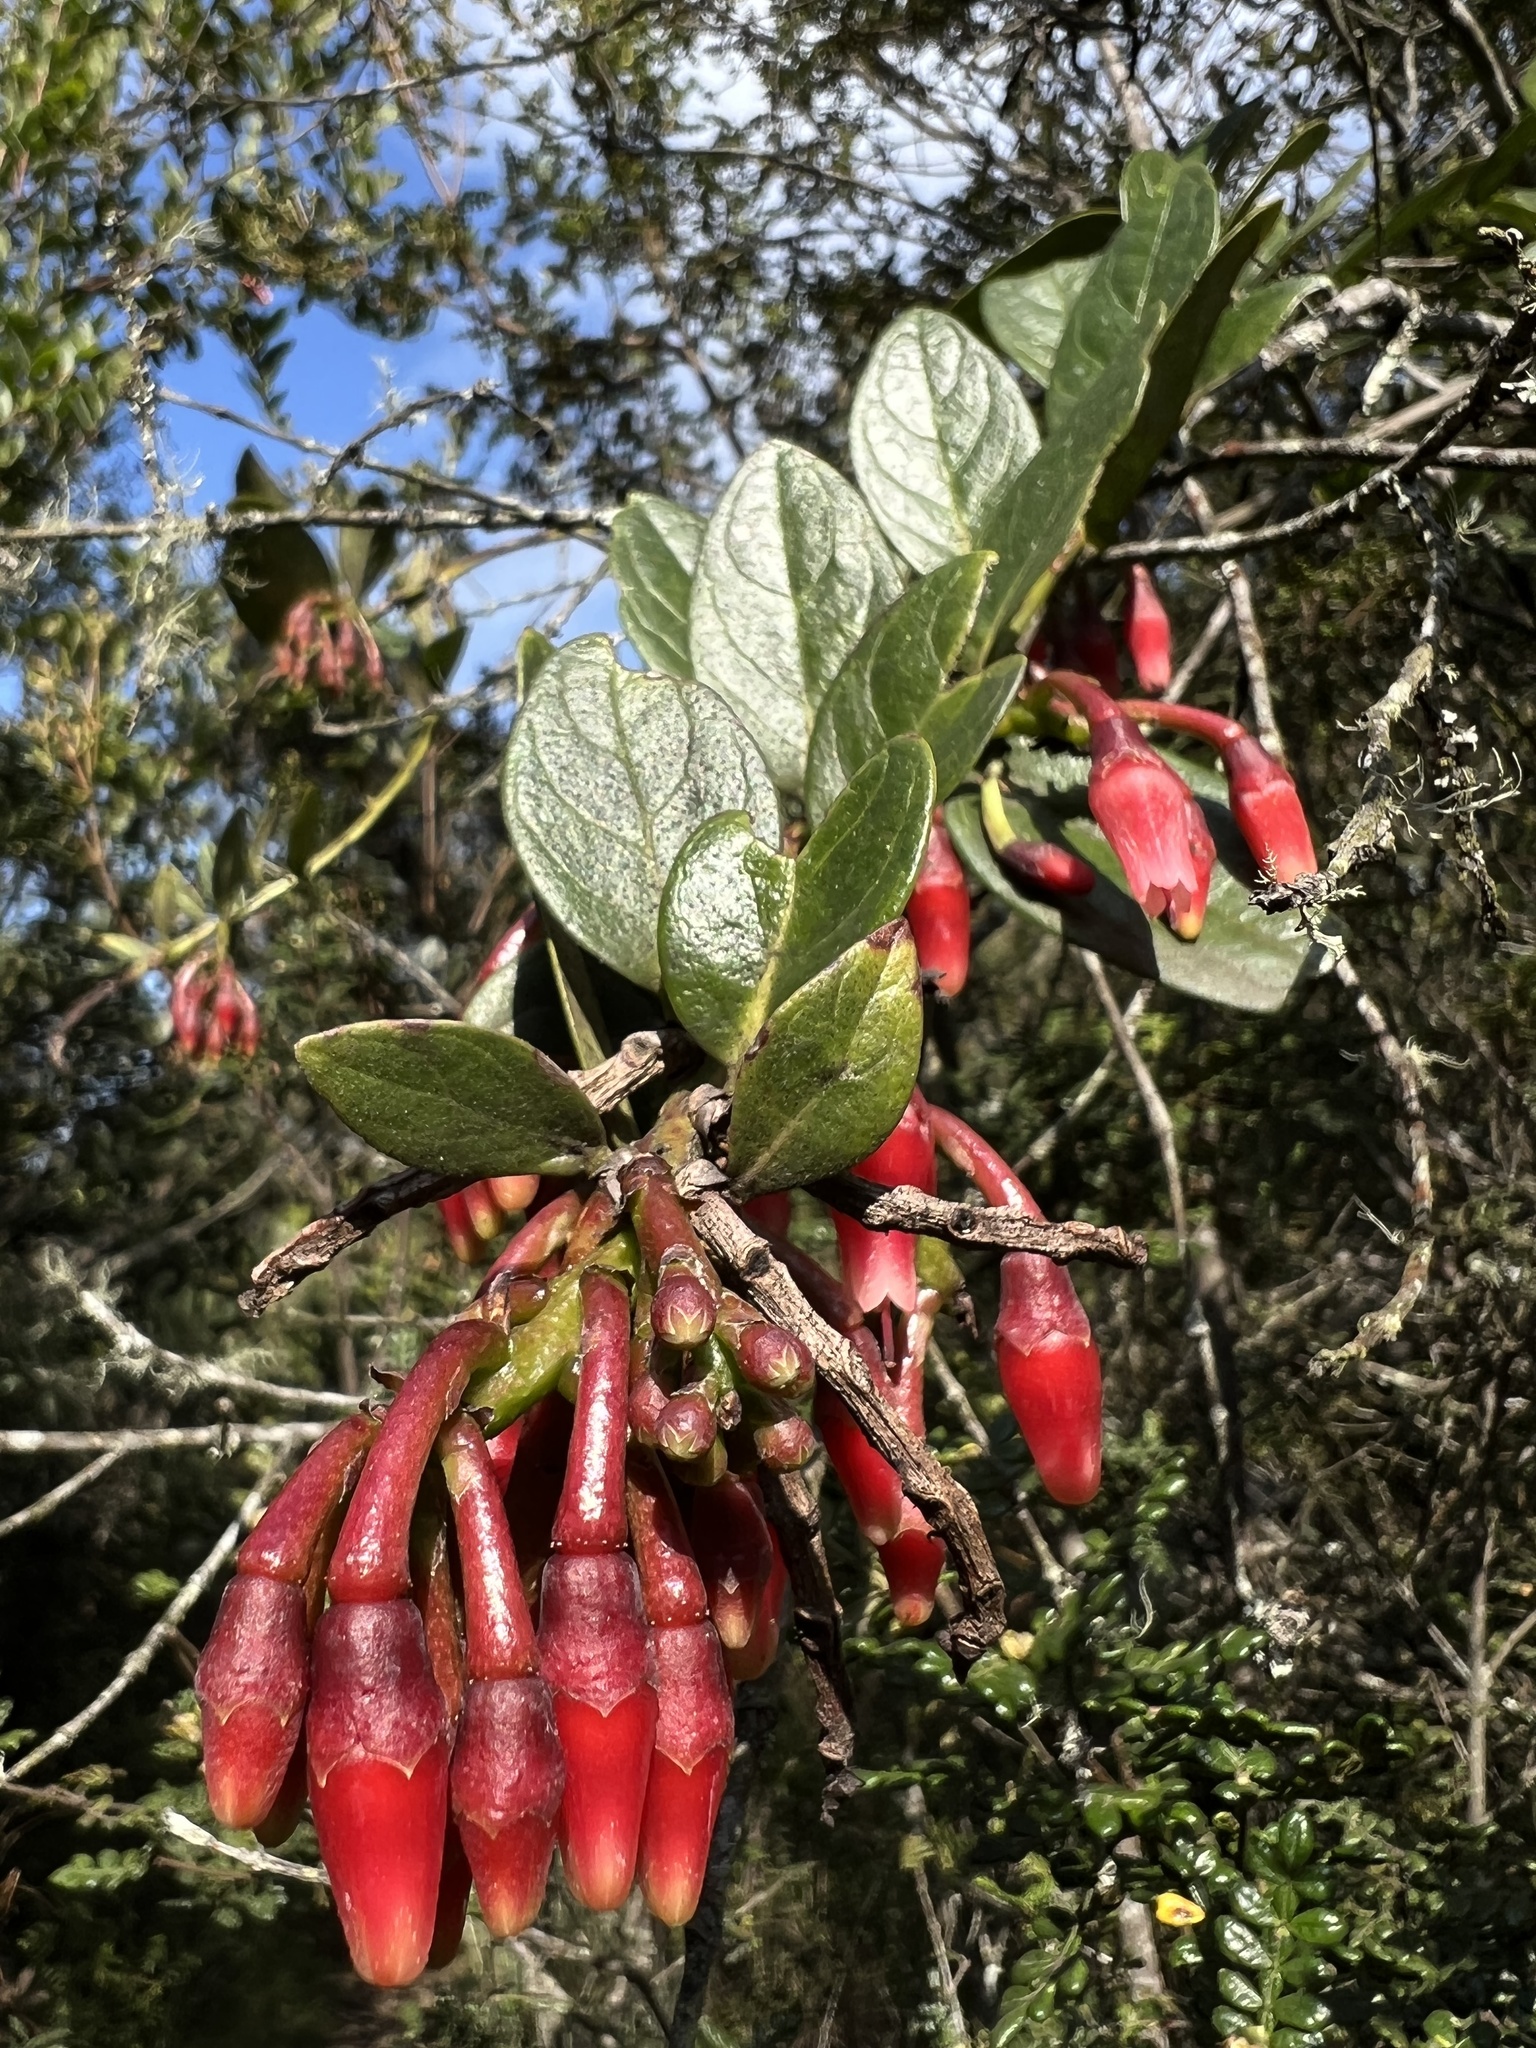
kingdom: Plantae
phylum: Tracheophyta
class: Magnoliopsida
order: Ericales
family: Ericaceae
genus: Macleania
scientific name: Macleania rupestris
